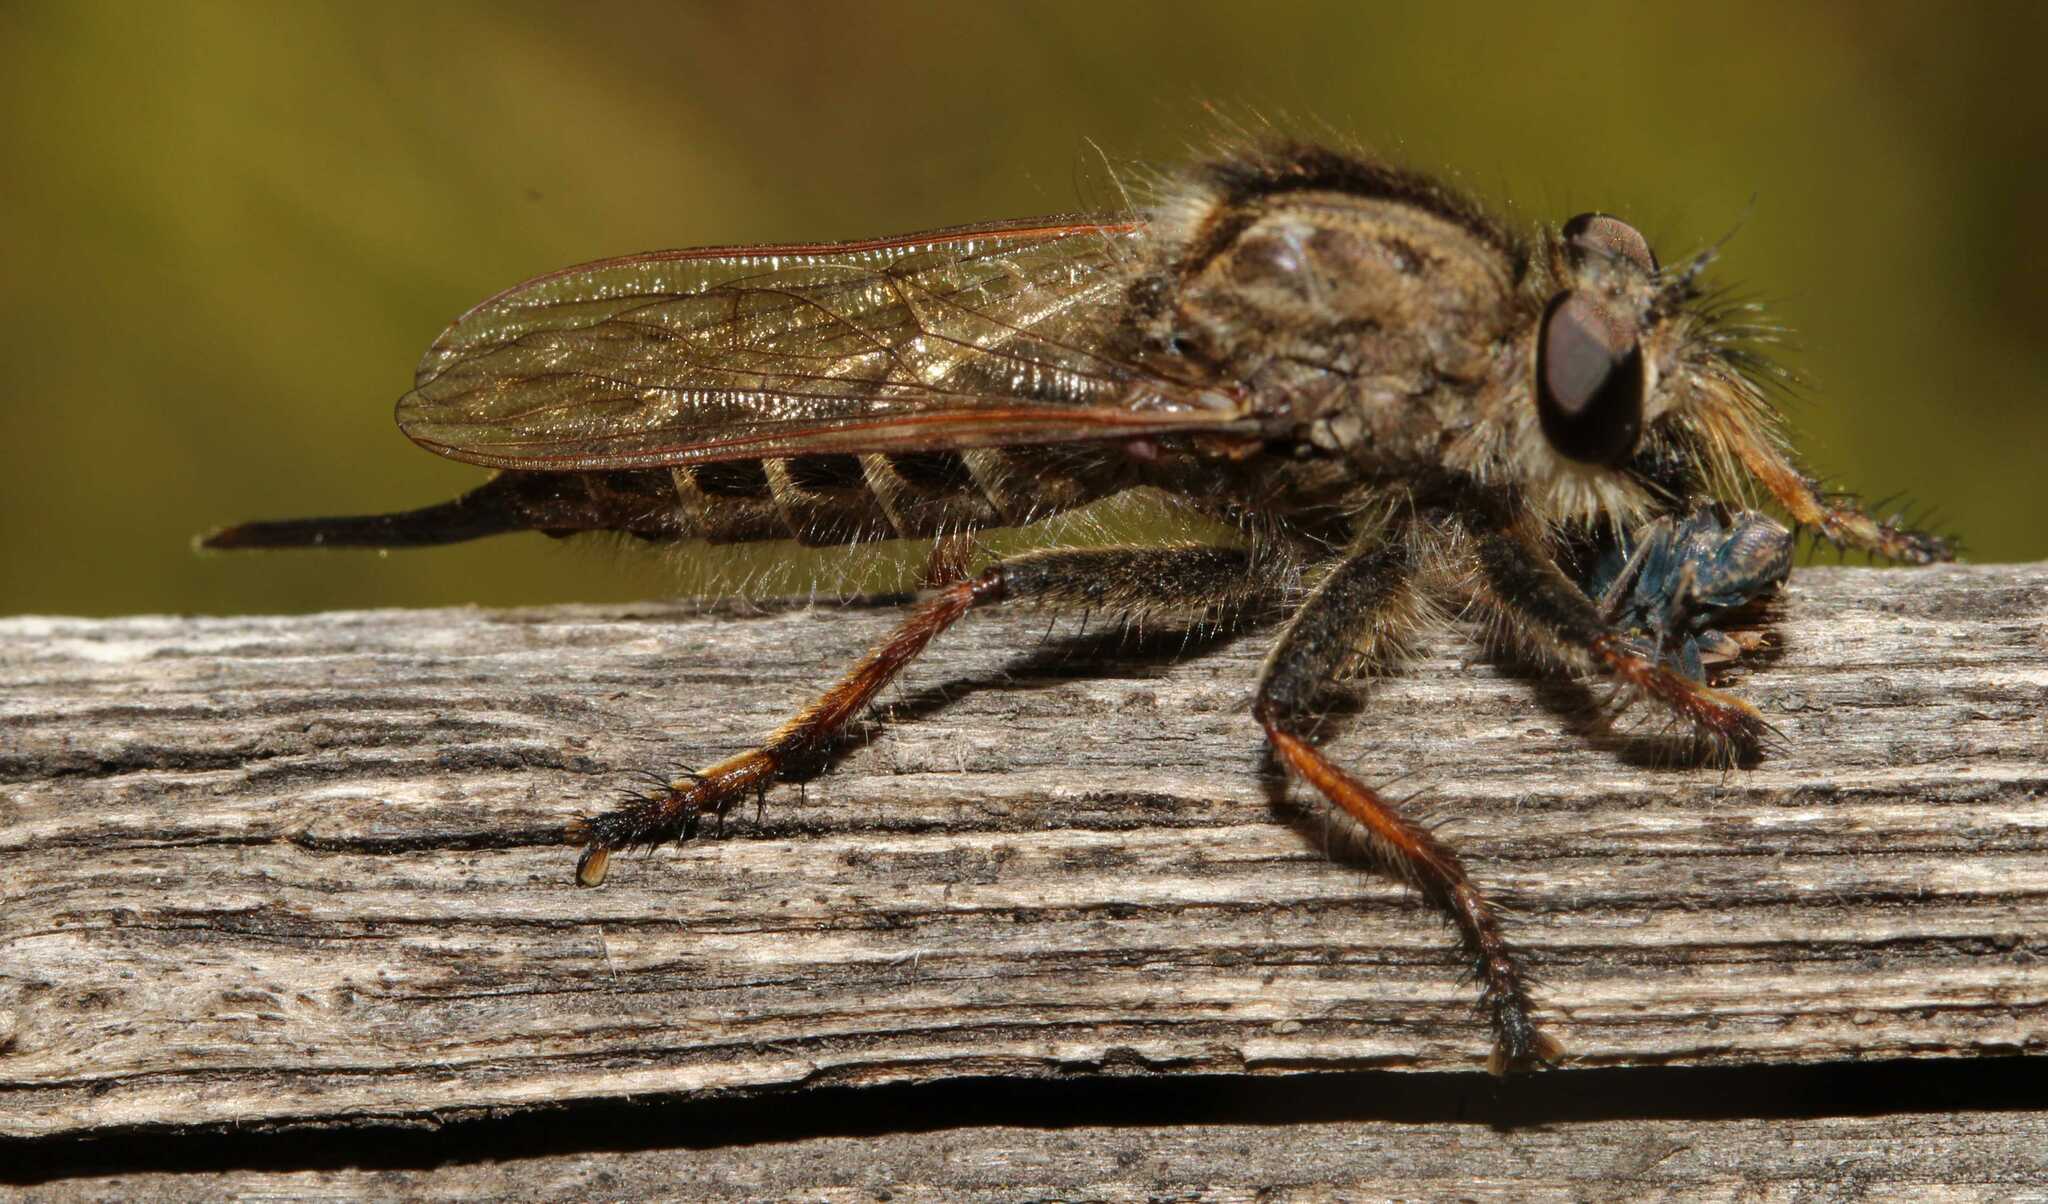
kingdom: Animalia
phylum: Arthropoda
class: Insecta
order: Diptera
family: Asilidae
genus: Efferia
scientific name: Efferia
